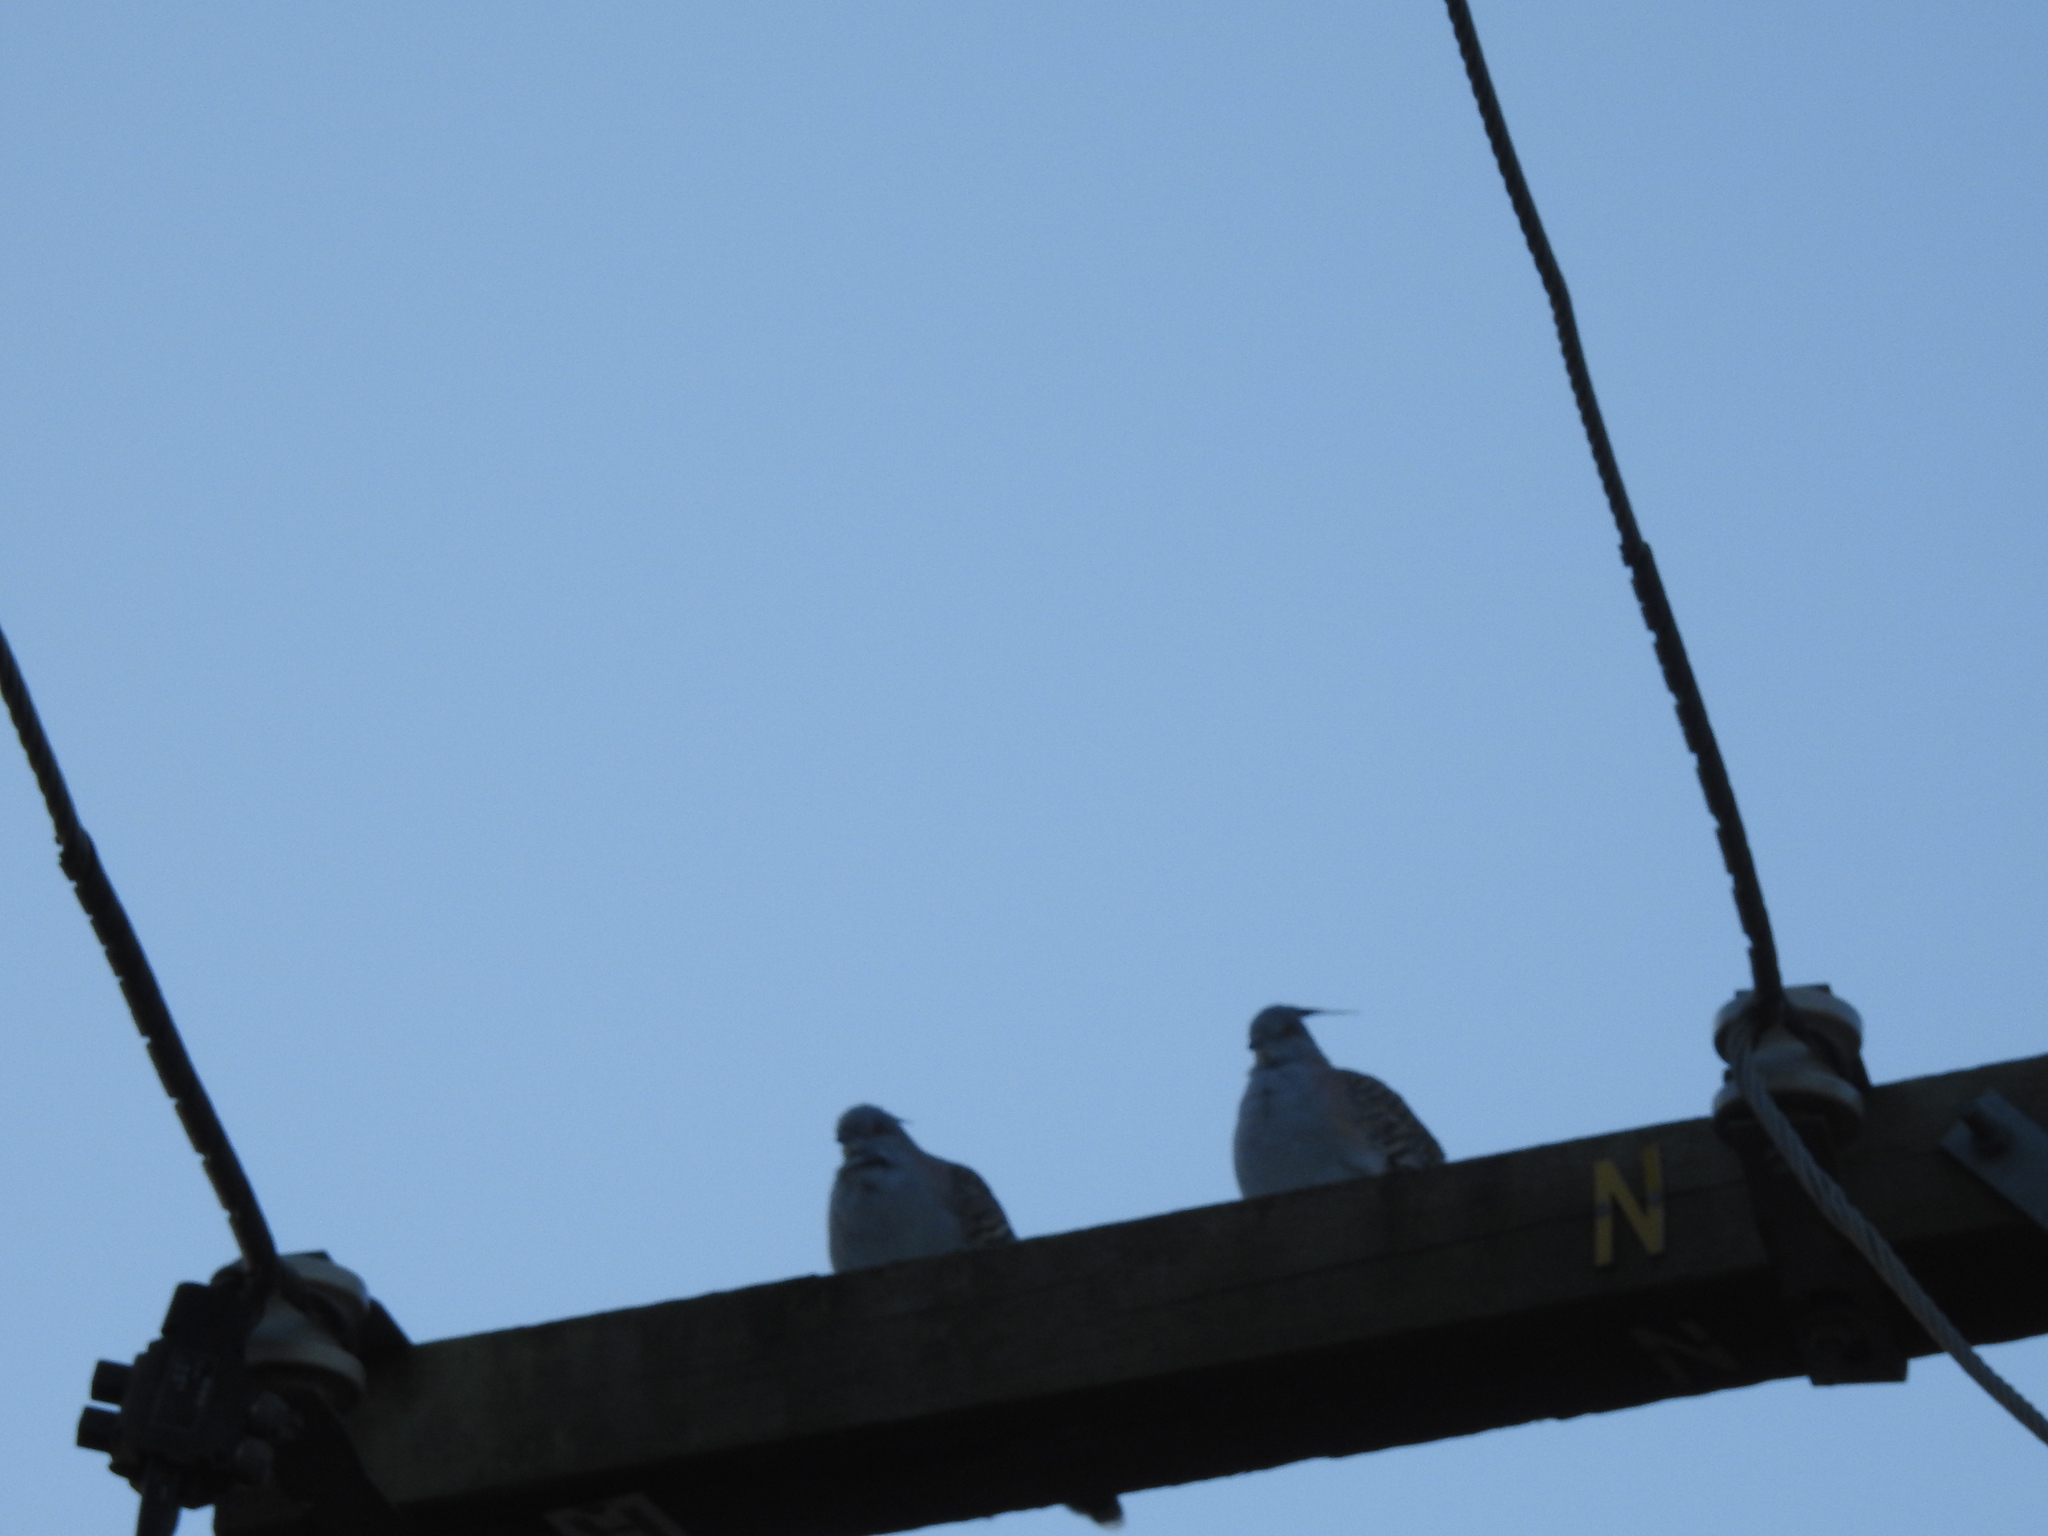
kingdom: Animalia
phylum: Chordata
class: Aves
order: Columbiformes
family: Columbidae
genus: Ocyphaps
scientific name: Ocyphaps lophotes
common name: Crested pigeon
